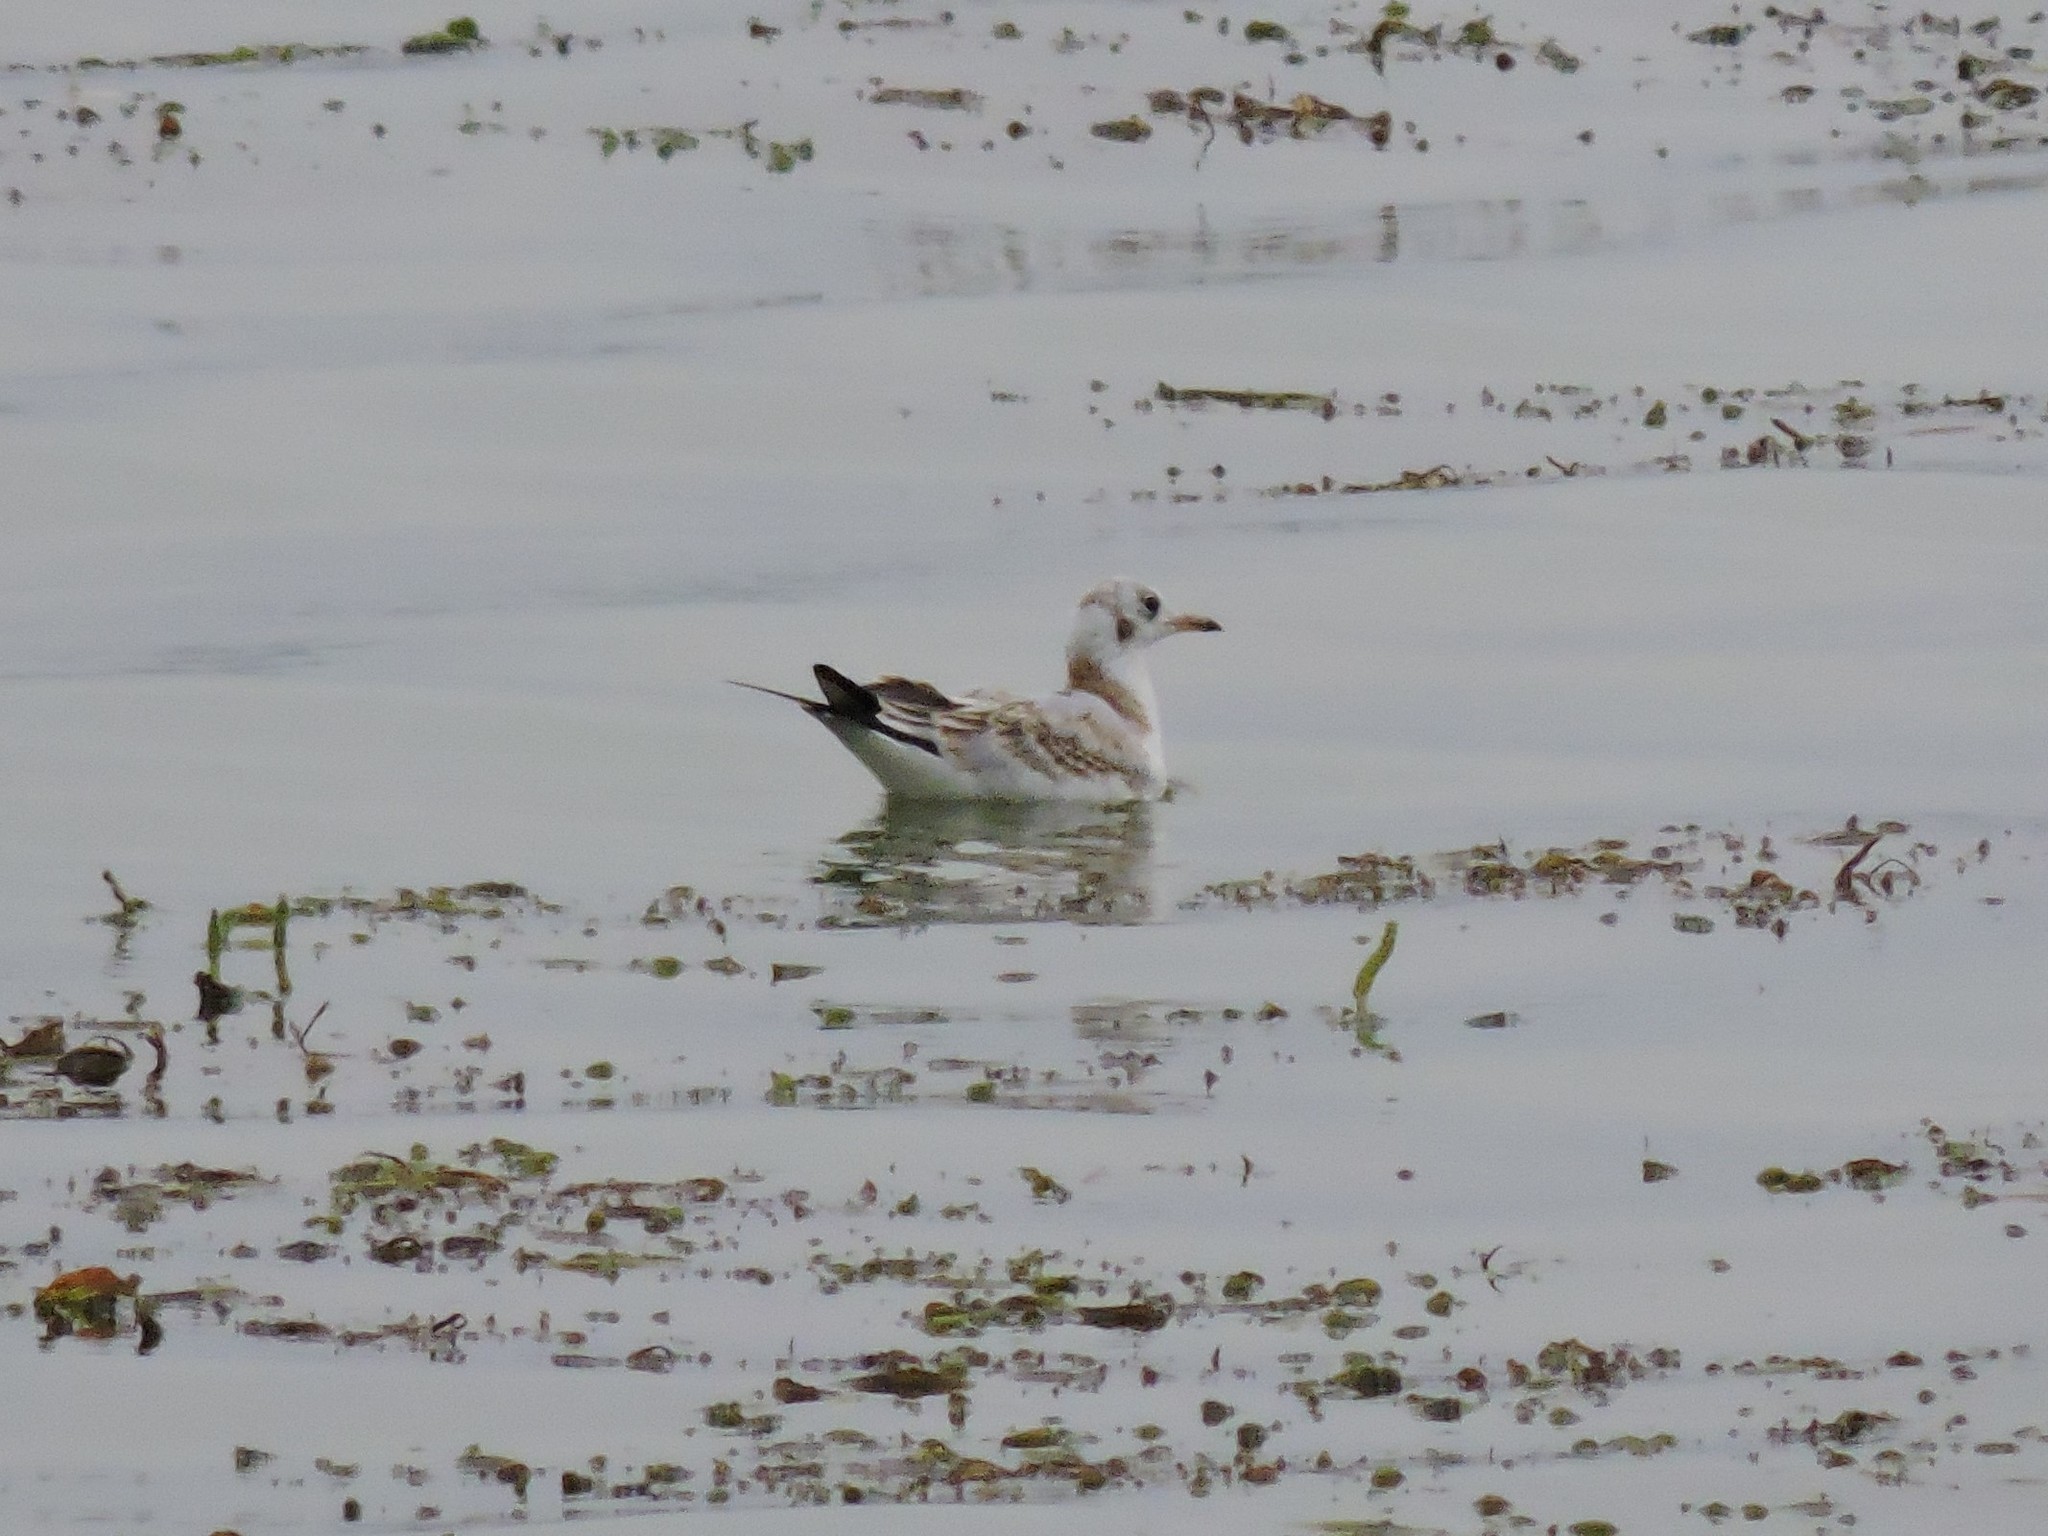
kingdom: Animalia
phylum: Chordata
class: Aves
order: Charadriiformes
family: Laridae
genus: Chroicocephalus
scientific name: Chroicocephalus ridibundus
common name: Black-headed gull
